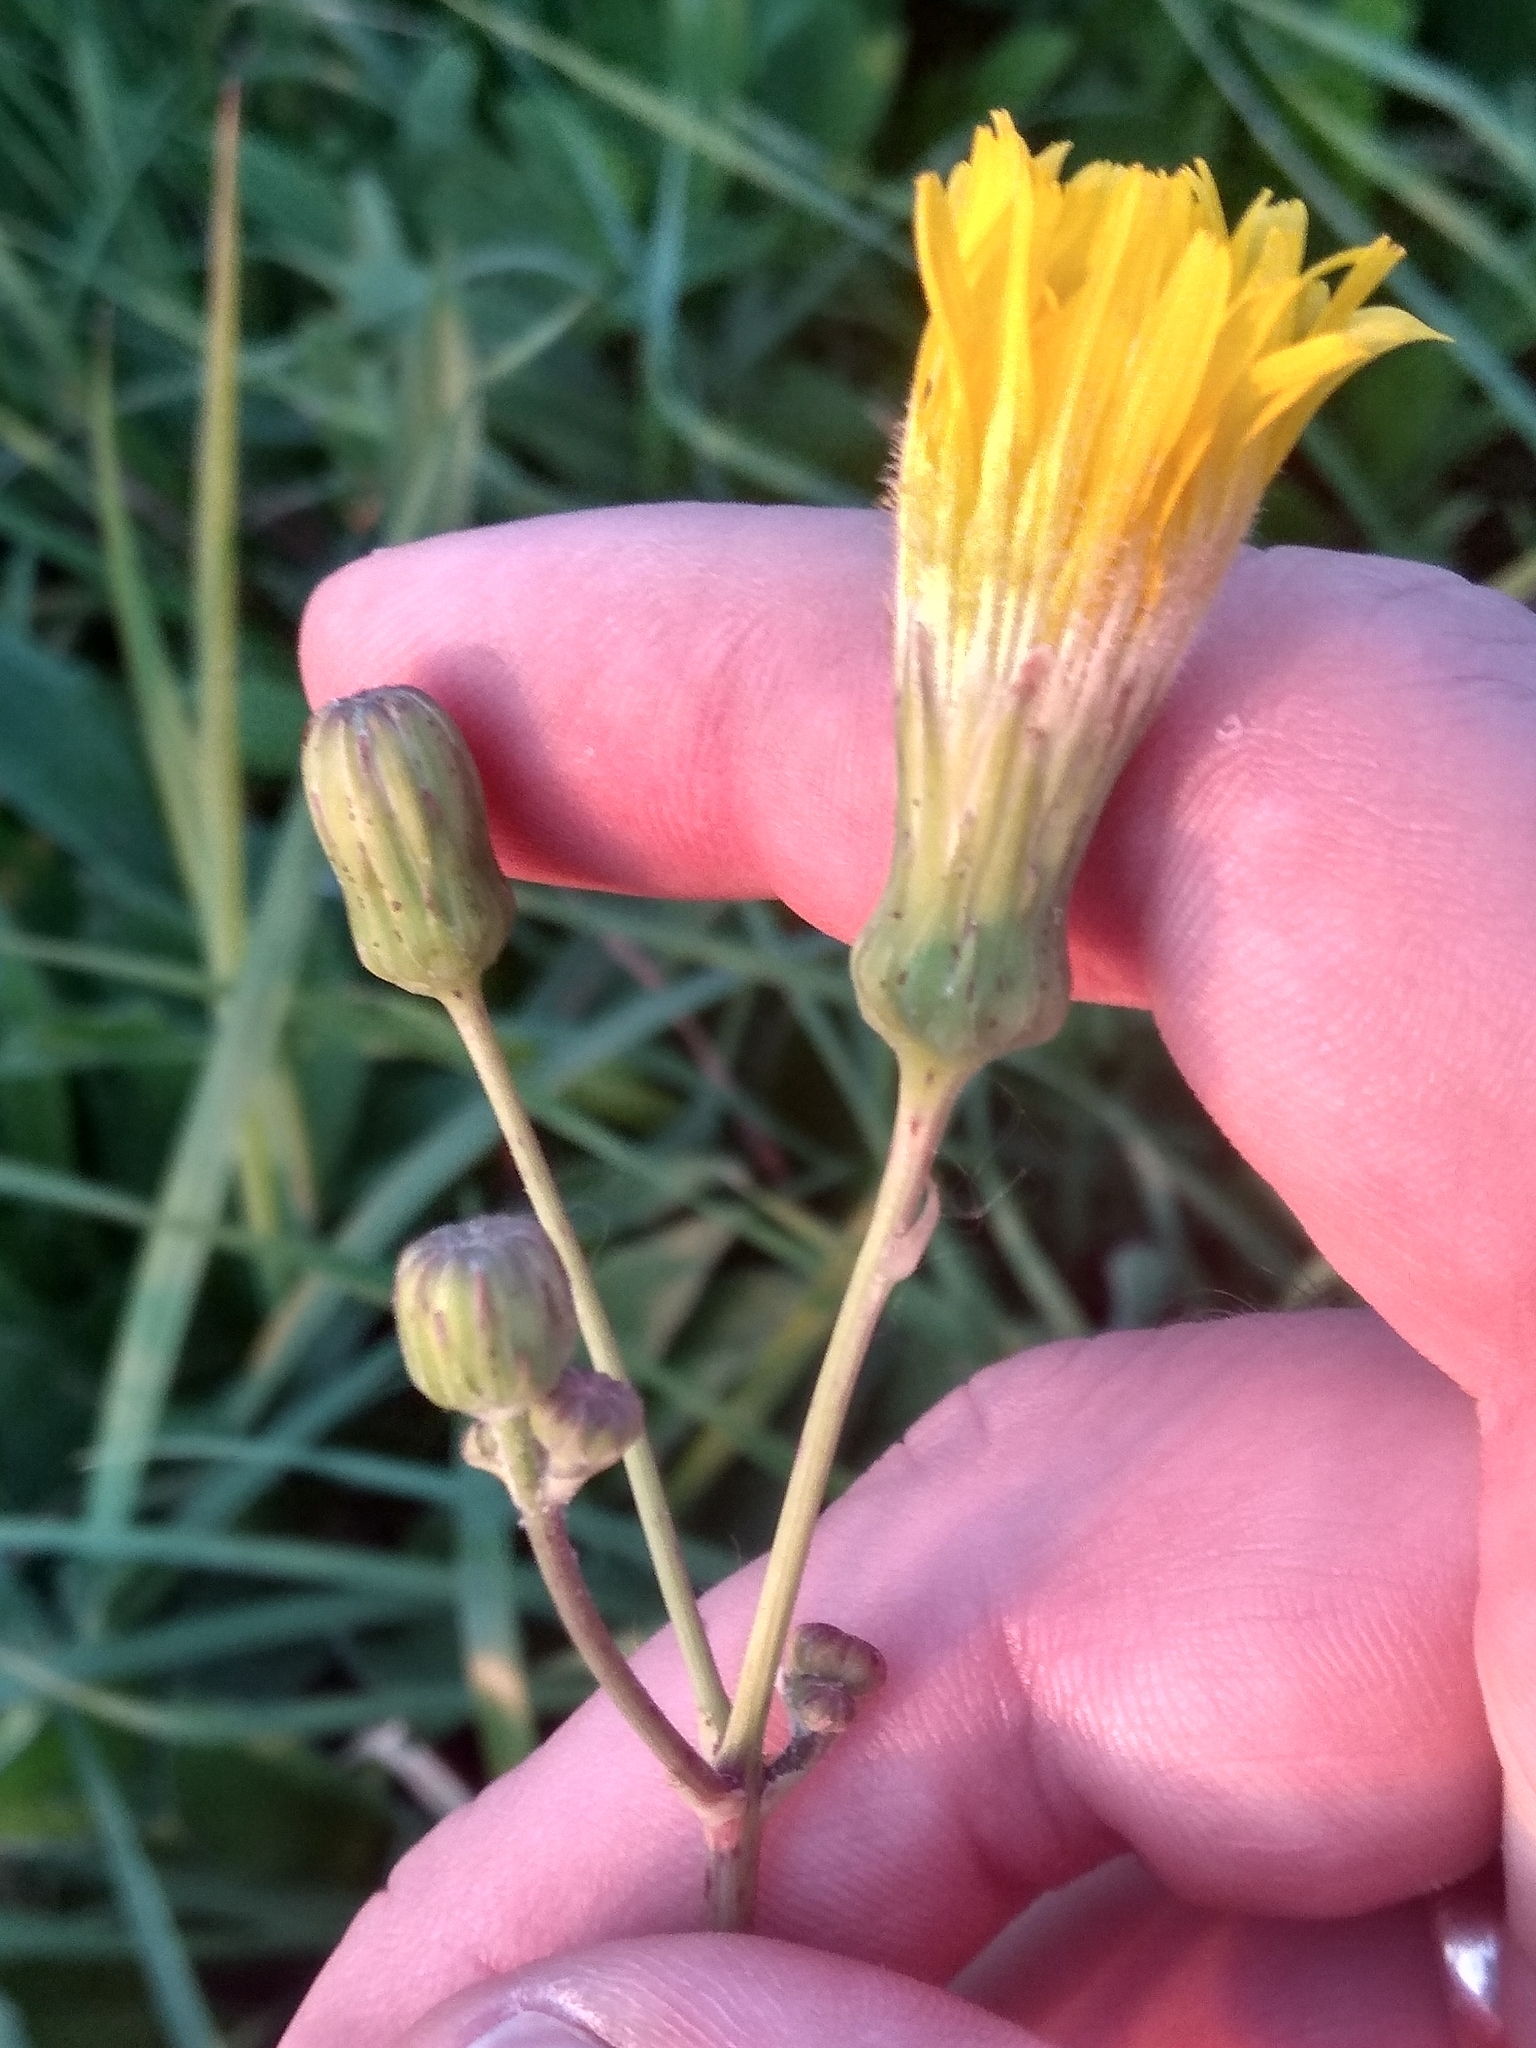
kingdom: Plantae
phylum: Tracheophyta
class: Magnoliopsida
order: Asterales
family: Asteraceae
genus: Sonchus
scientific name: Sonchus arvensis
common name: Perennial sow-thistle
